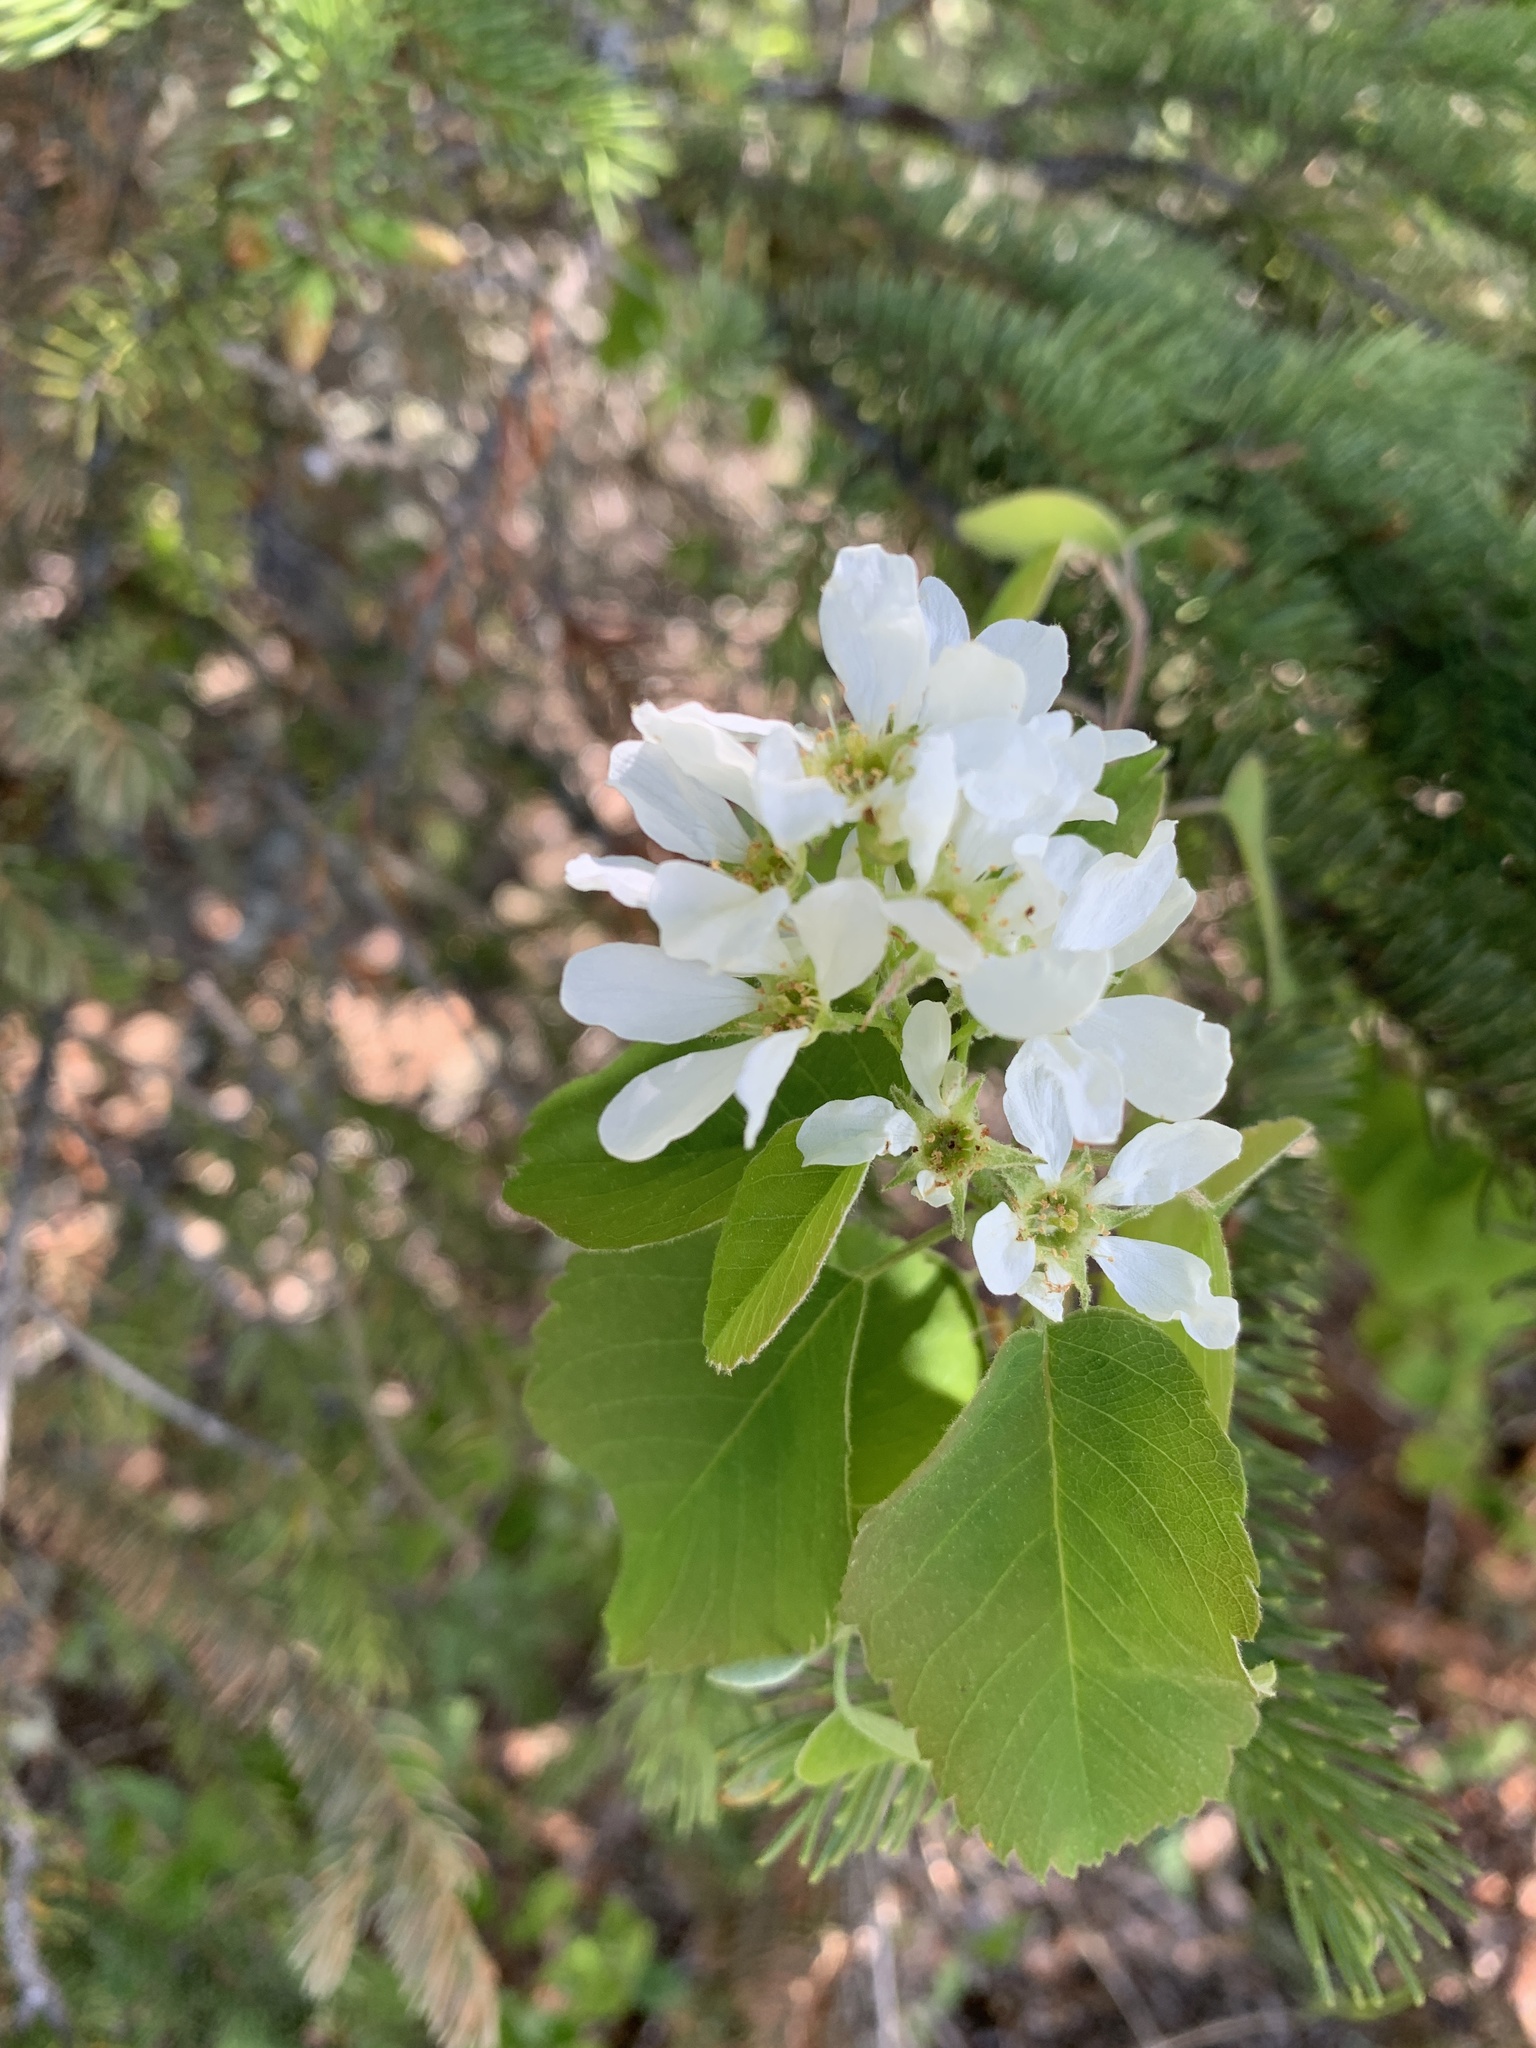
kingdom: Plantae
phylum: Tracheophyta
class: Magnoliopsida
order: Rosales
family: Rosaceae
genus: Amelanchier
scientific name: Amelanchier alnifolia
